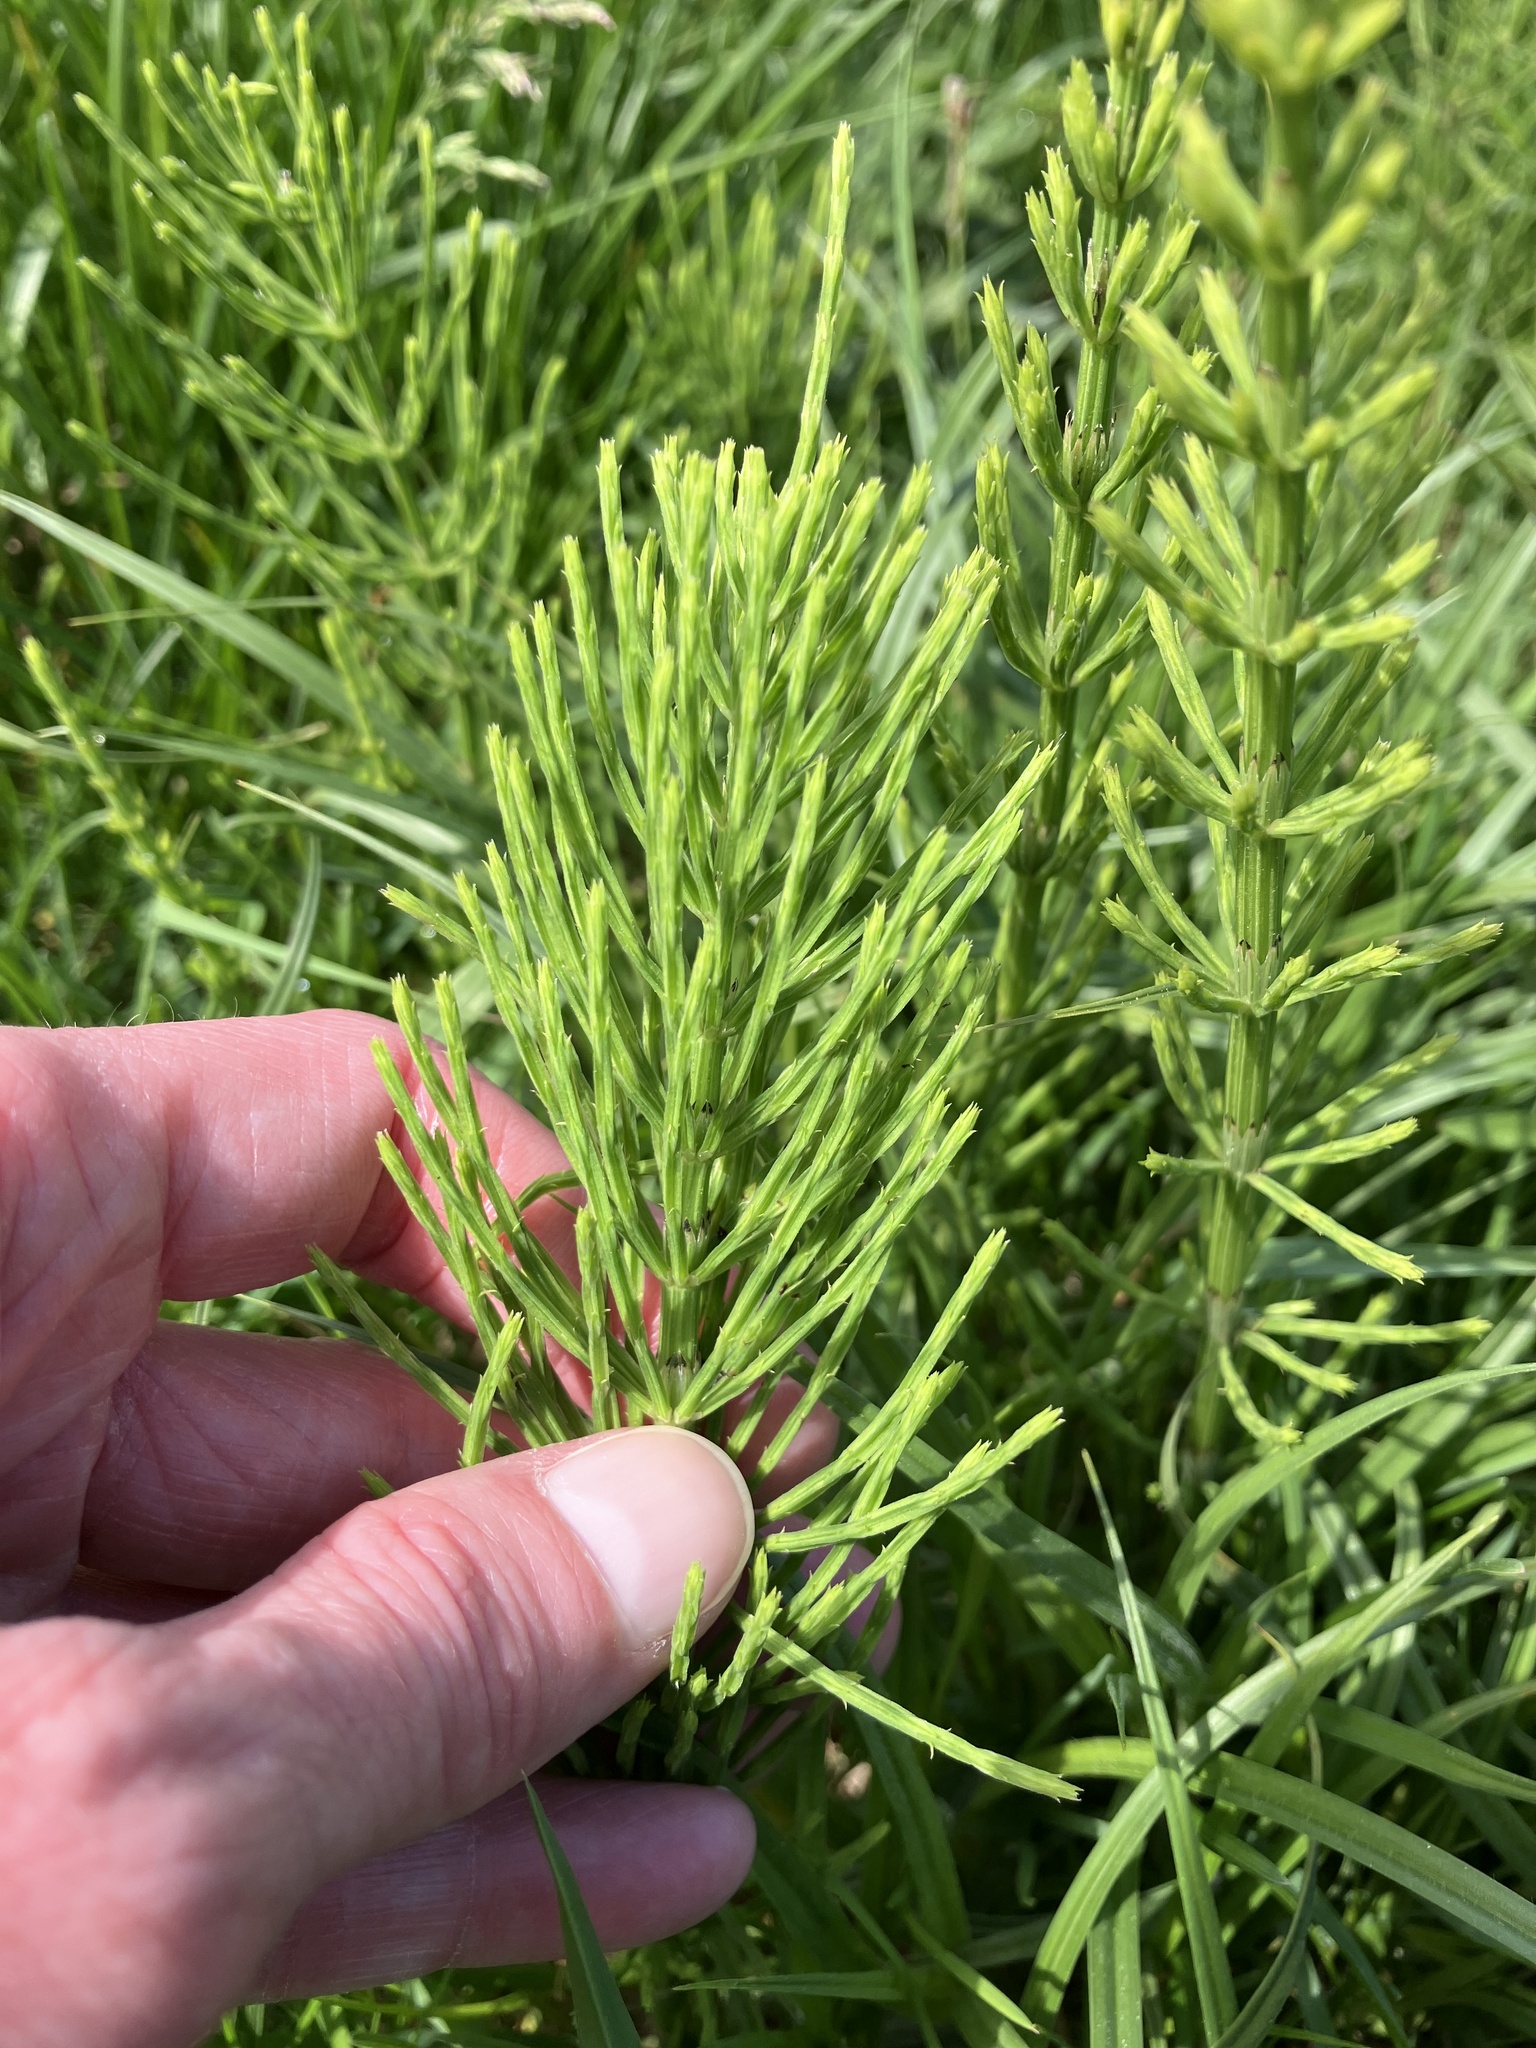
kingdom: Plantae
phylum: Tracheophyta
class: Polypodiopsida
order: Equisetales
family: Equisetaceae
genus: Equisetum
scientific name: Equisetum arvense
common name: Field horsetail
